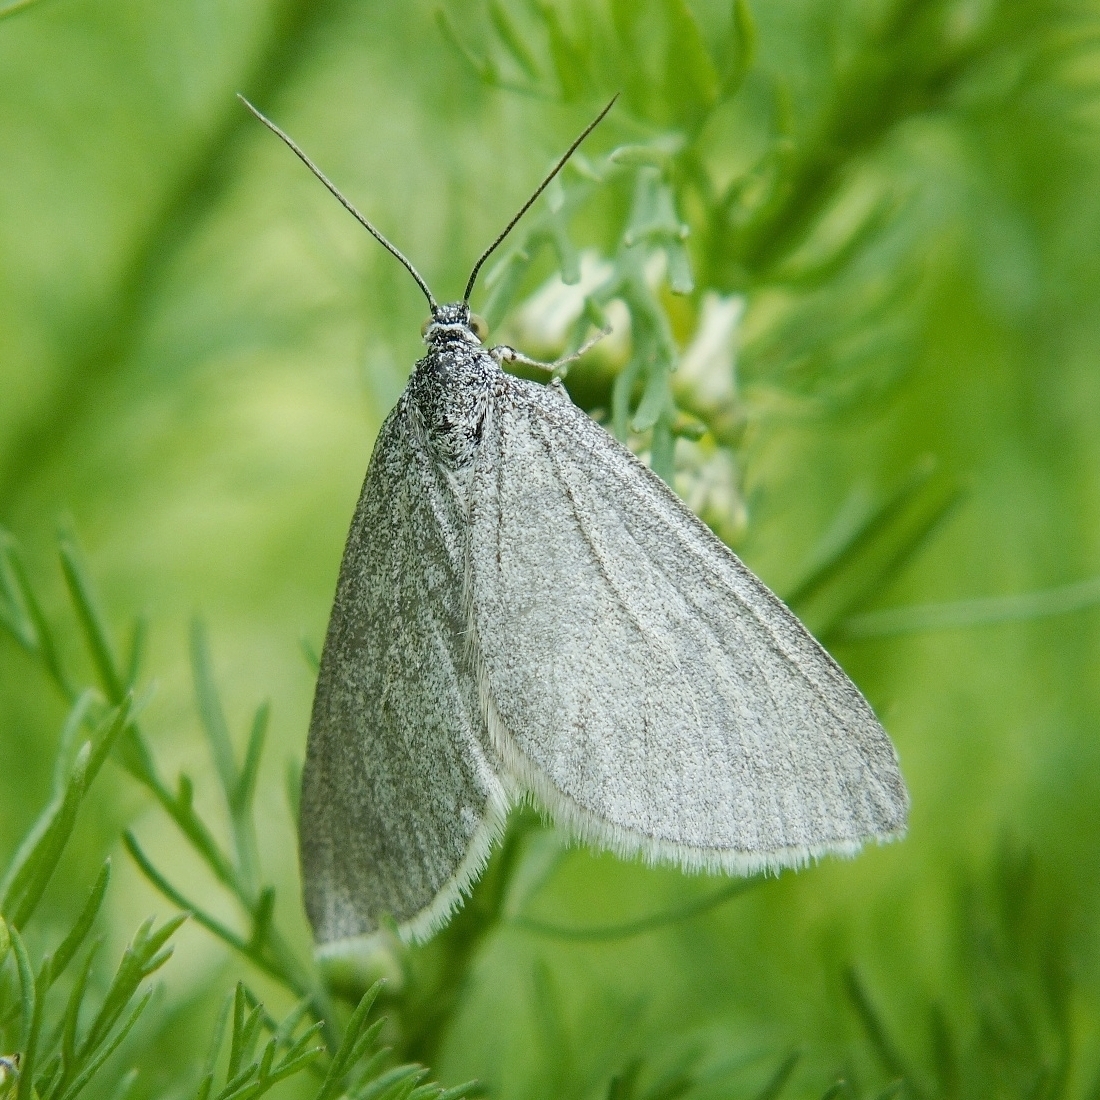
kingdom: Animalia
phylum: Arthropoda
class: Insecta
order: Lepidoptera
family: Geometridae
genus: Lithostege
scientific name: Lithostege griseata
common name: Grey carpet
